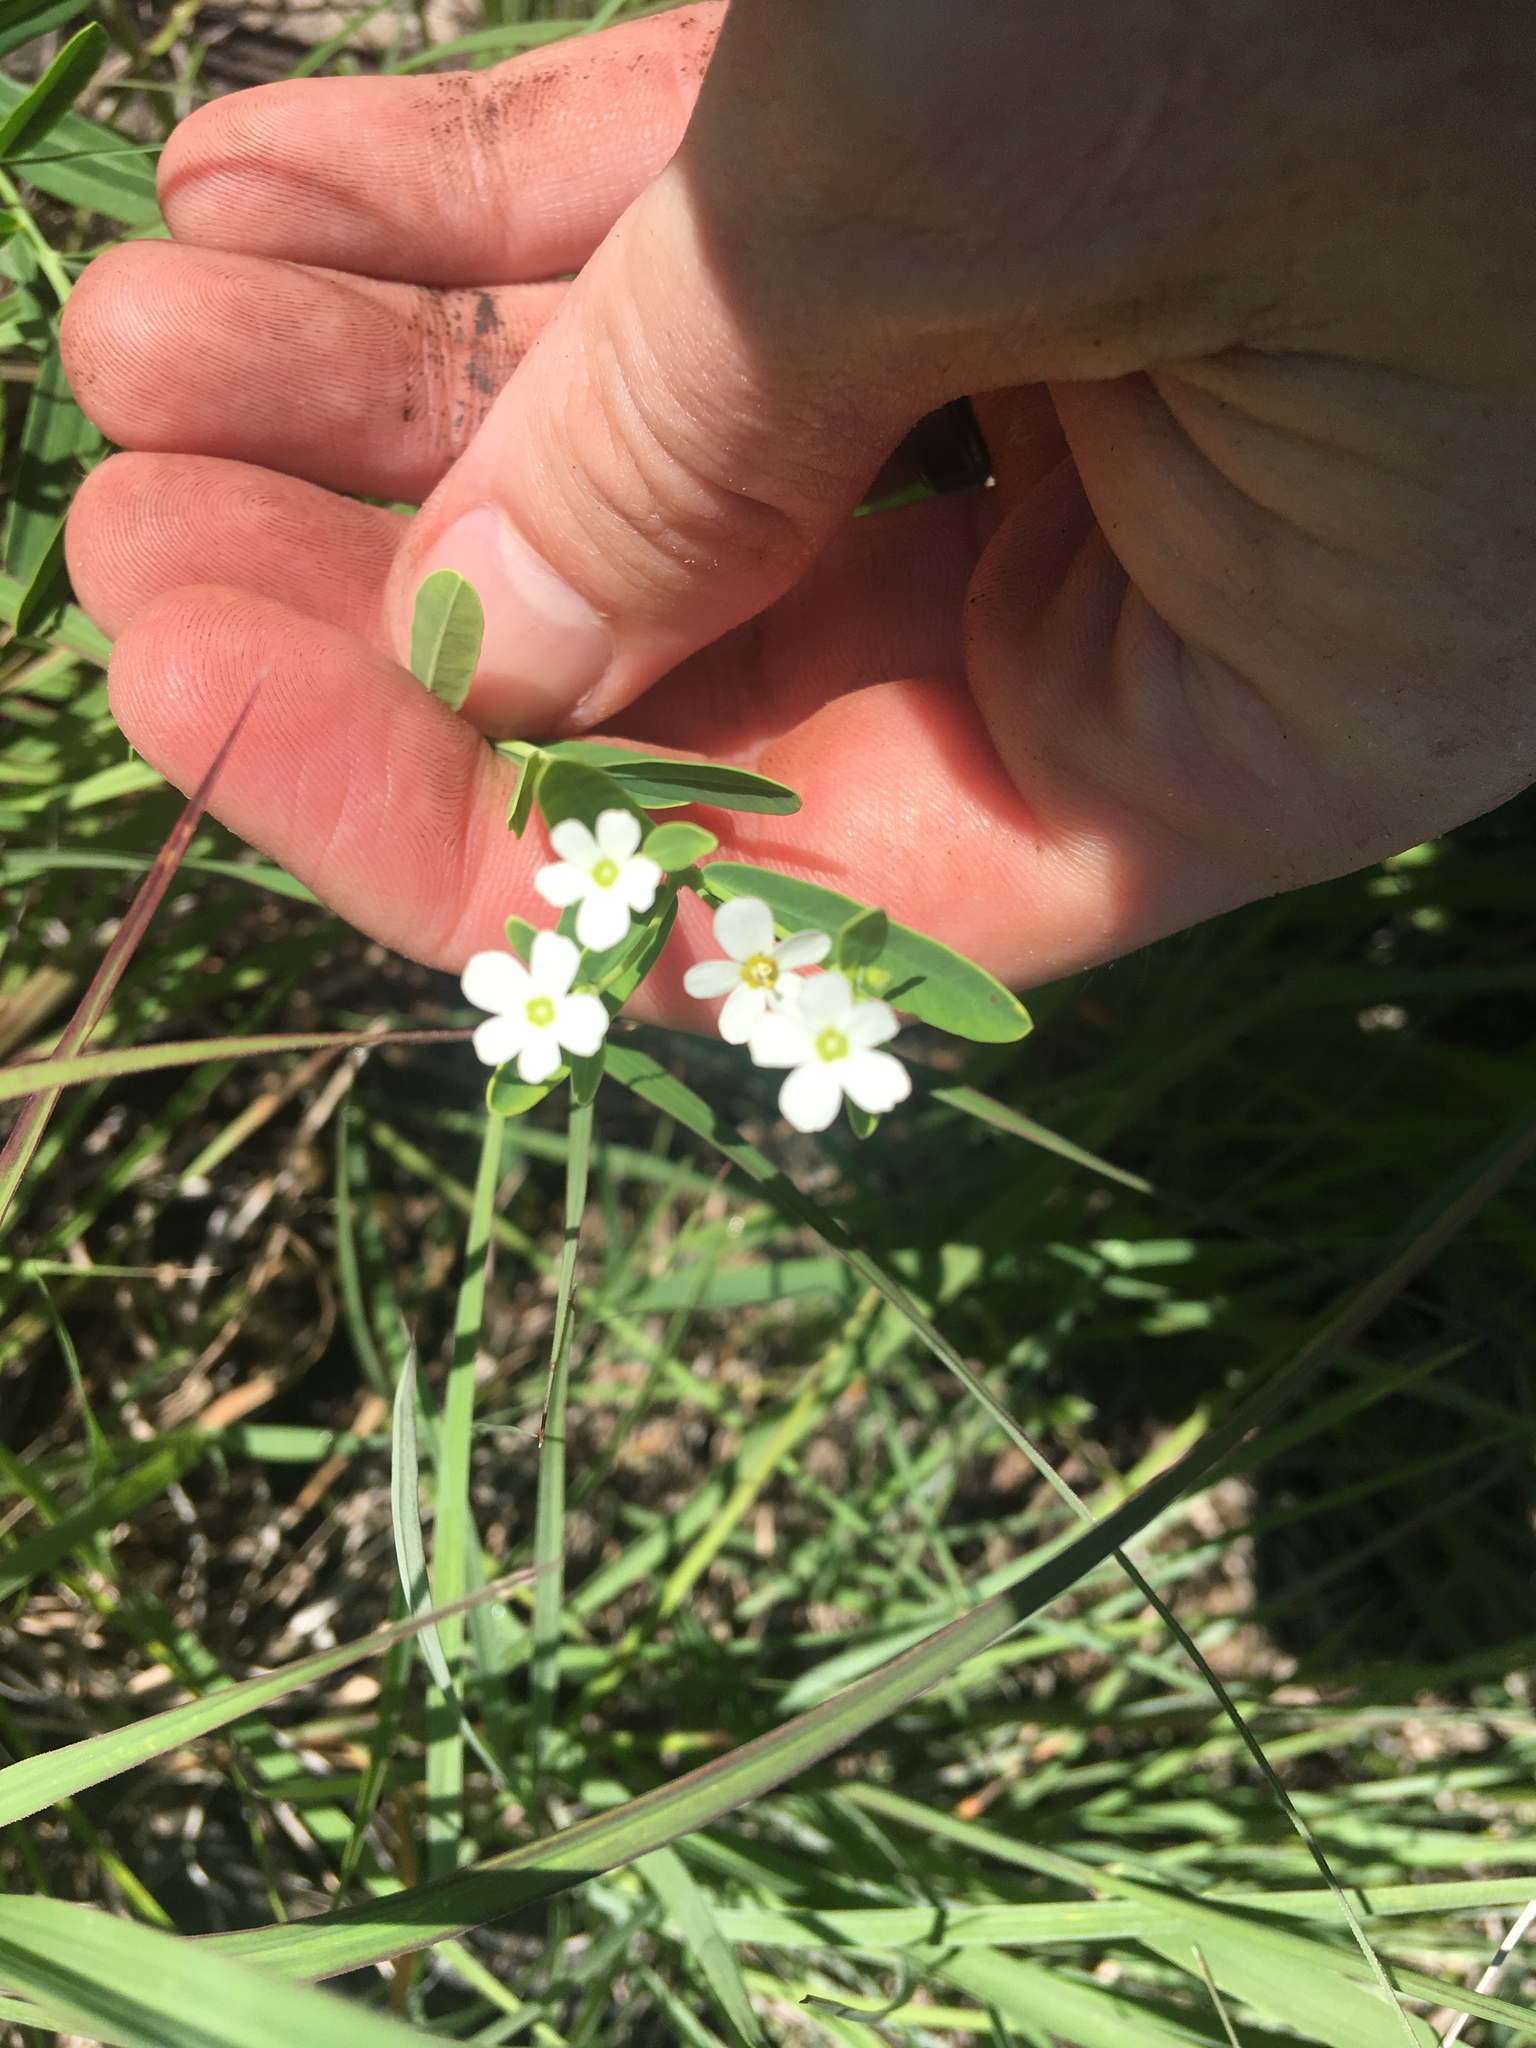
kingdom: Plantae
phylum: Tracheophyta
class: Magnoliopsida
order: Malpighiales
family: Euphorbiaceae
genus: Euphorbia
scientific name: Euphorbia corollata
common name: Flowering spurge
